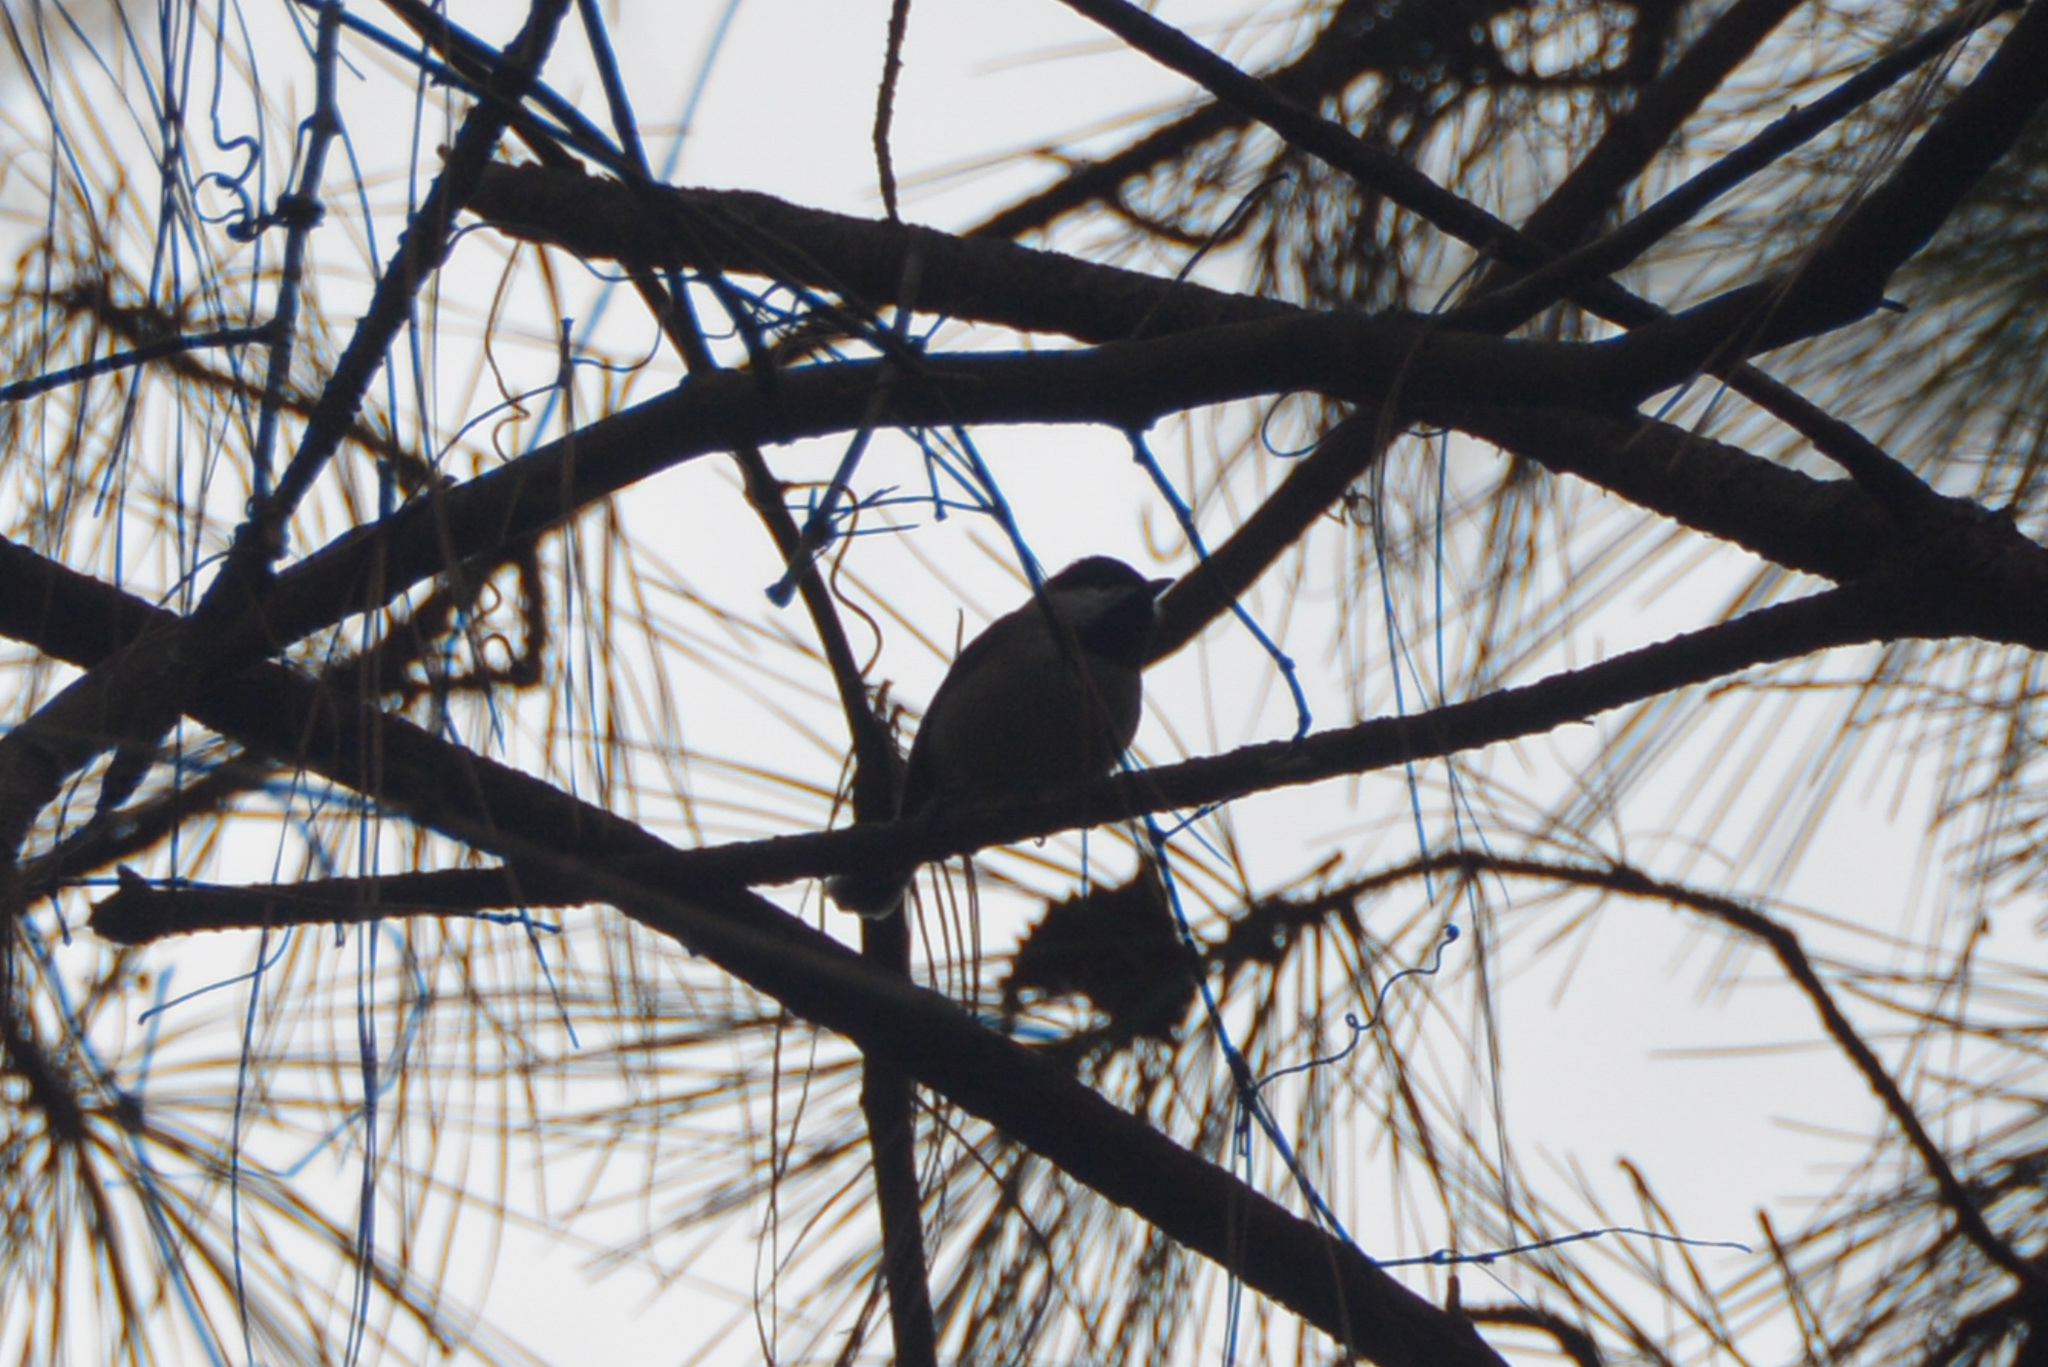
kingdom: Animalia
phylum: Chordata
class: Aves
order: Passeriformes
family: Paridae
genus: Poecile
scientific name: Poecile carolinensis
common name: Carolina chickadee
